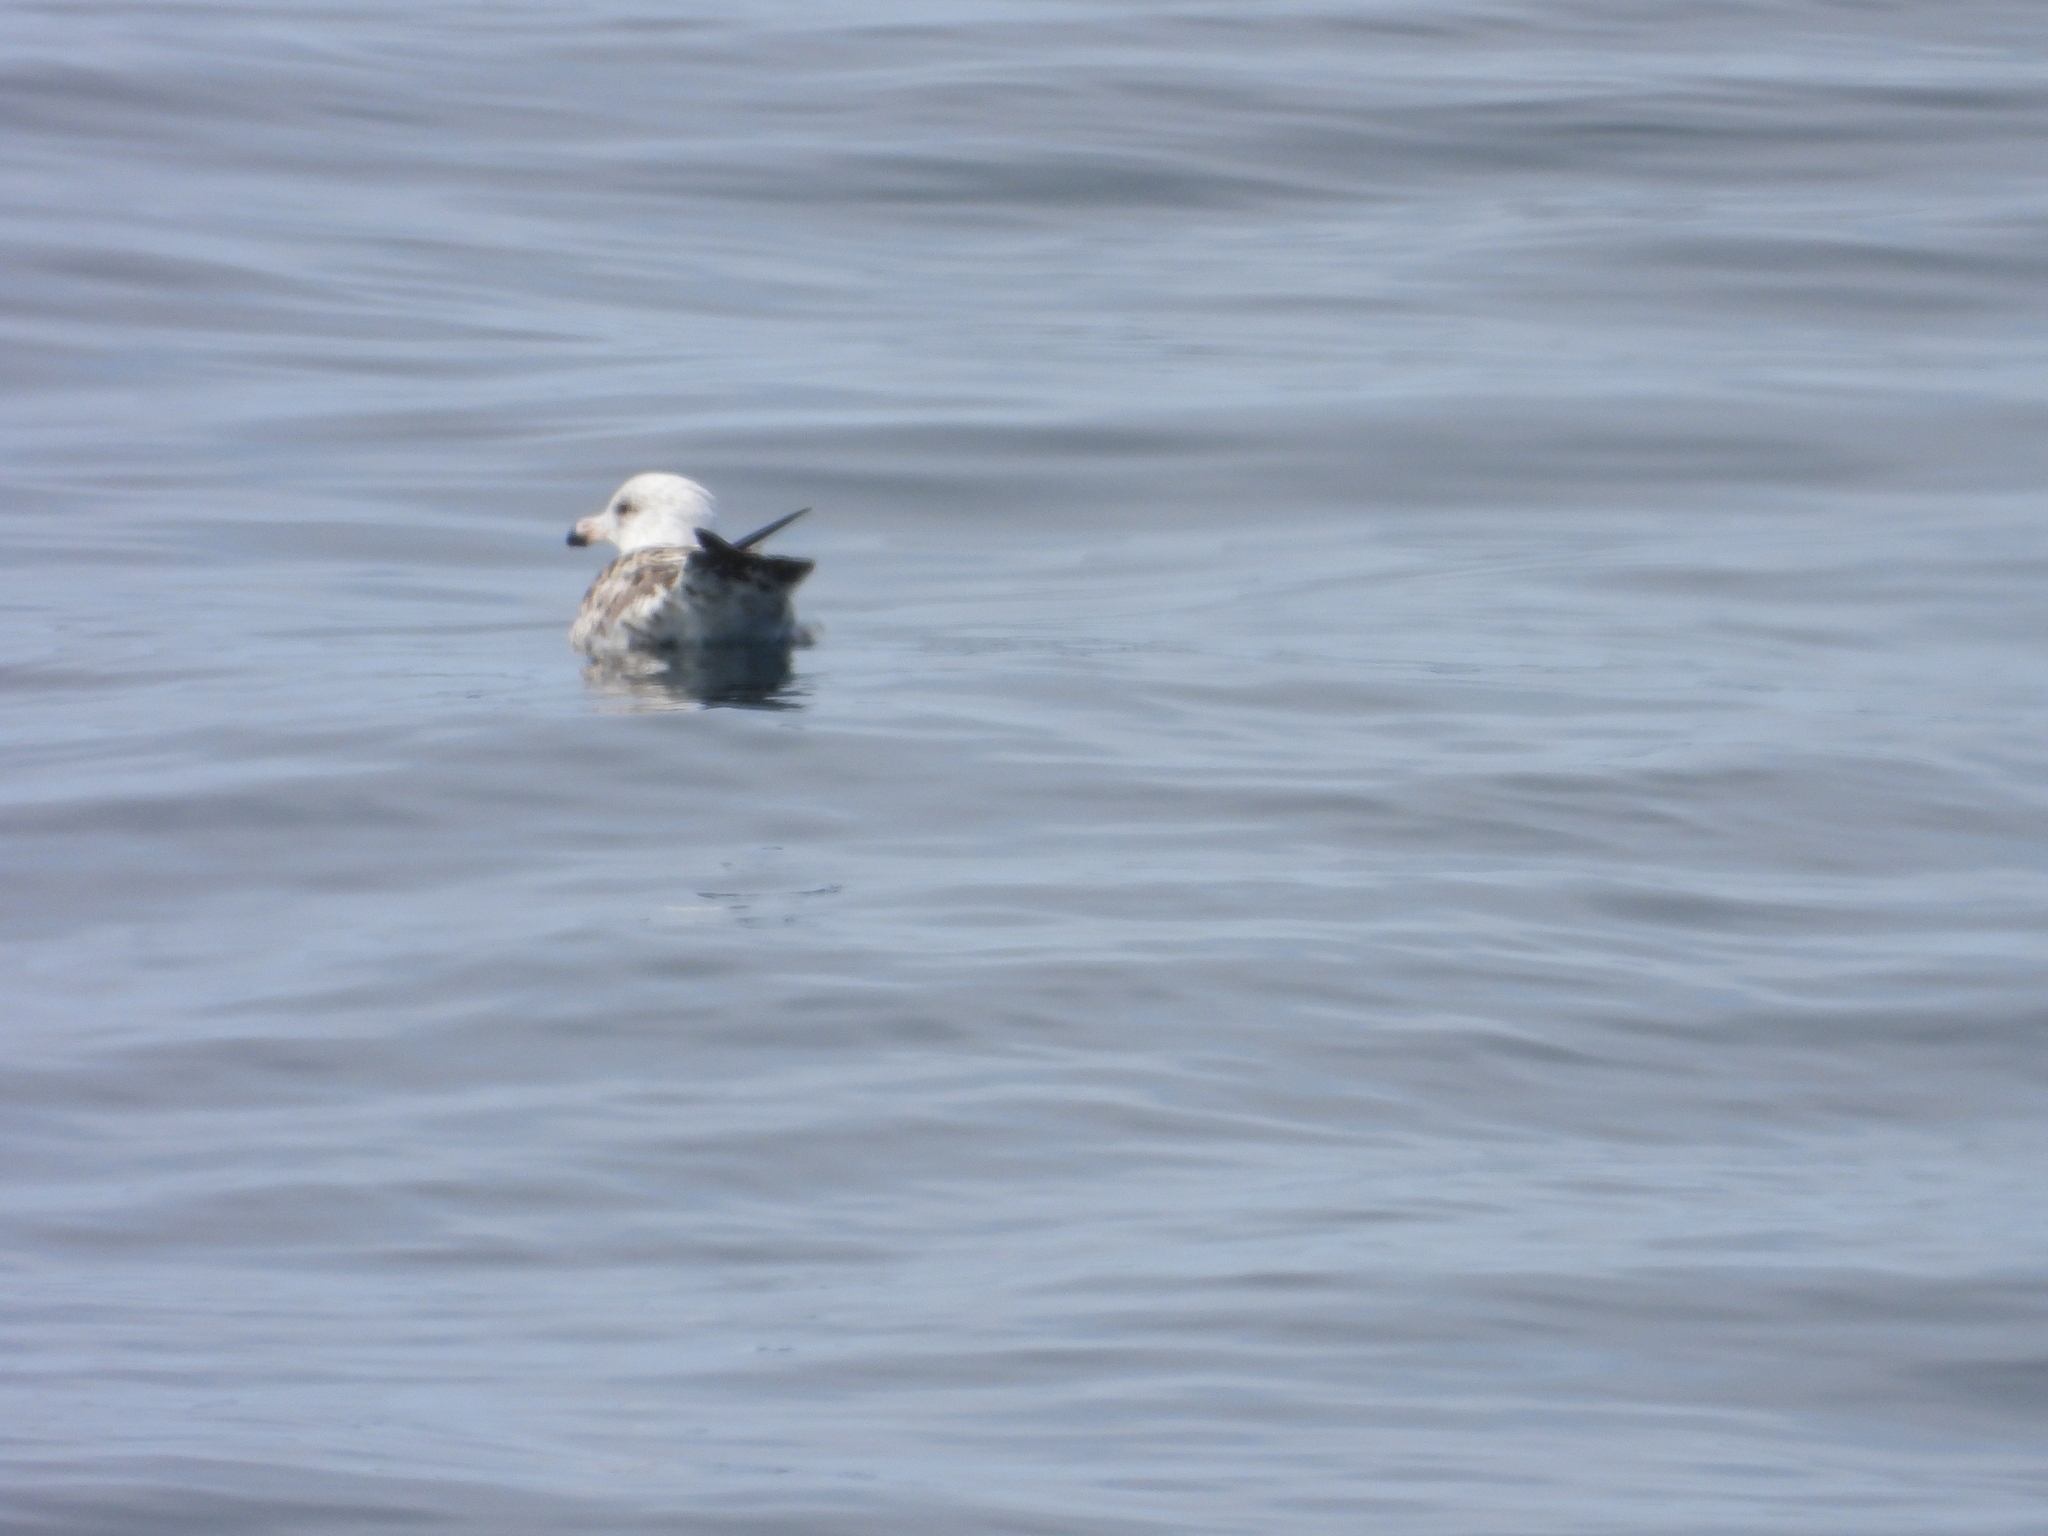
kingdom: Animalia
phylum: Chordata
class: Aves
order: Charadriiformes
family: Laridae
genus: Larus
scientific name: Larus marinus
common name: Great black-backed gull
